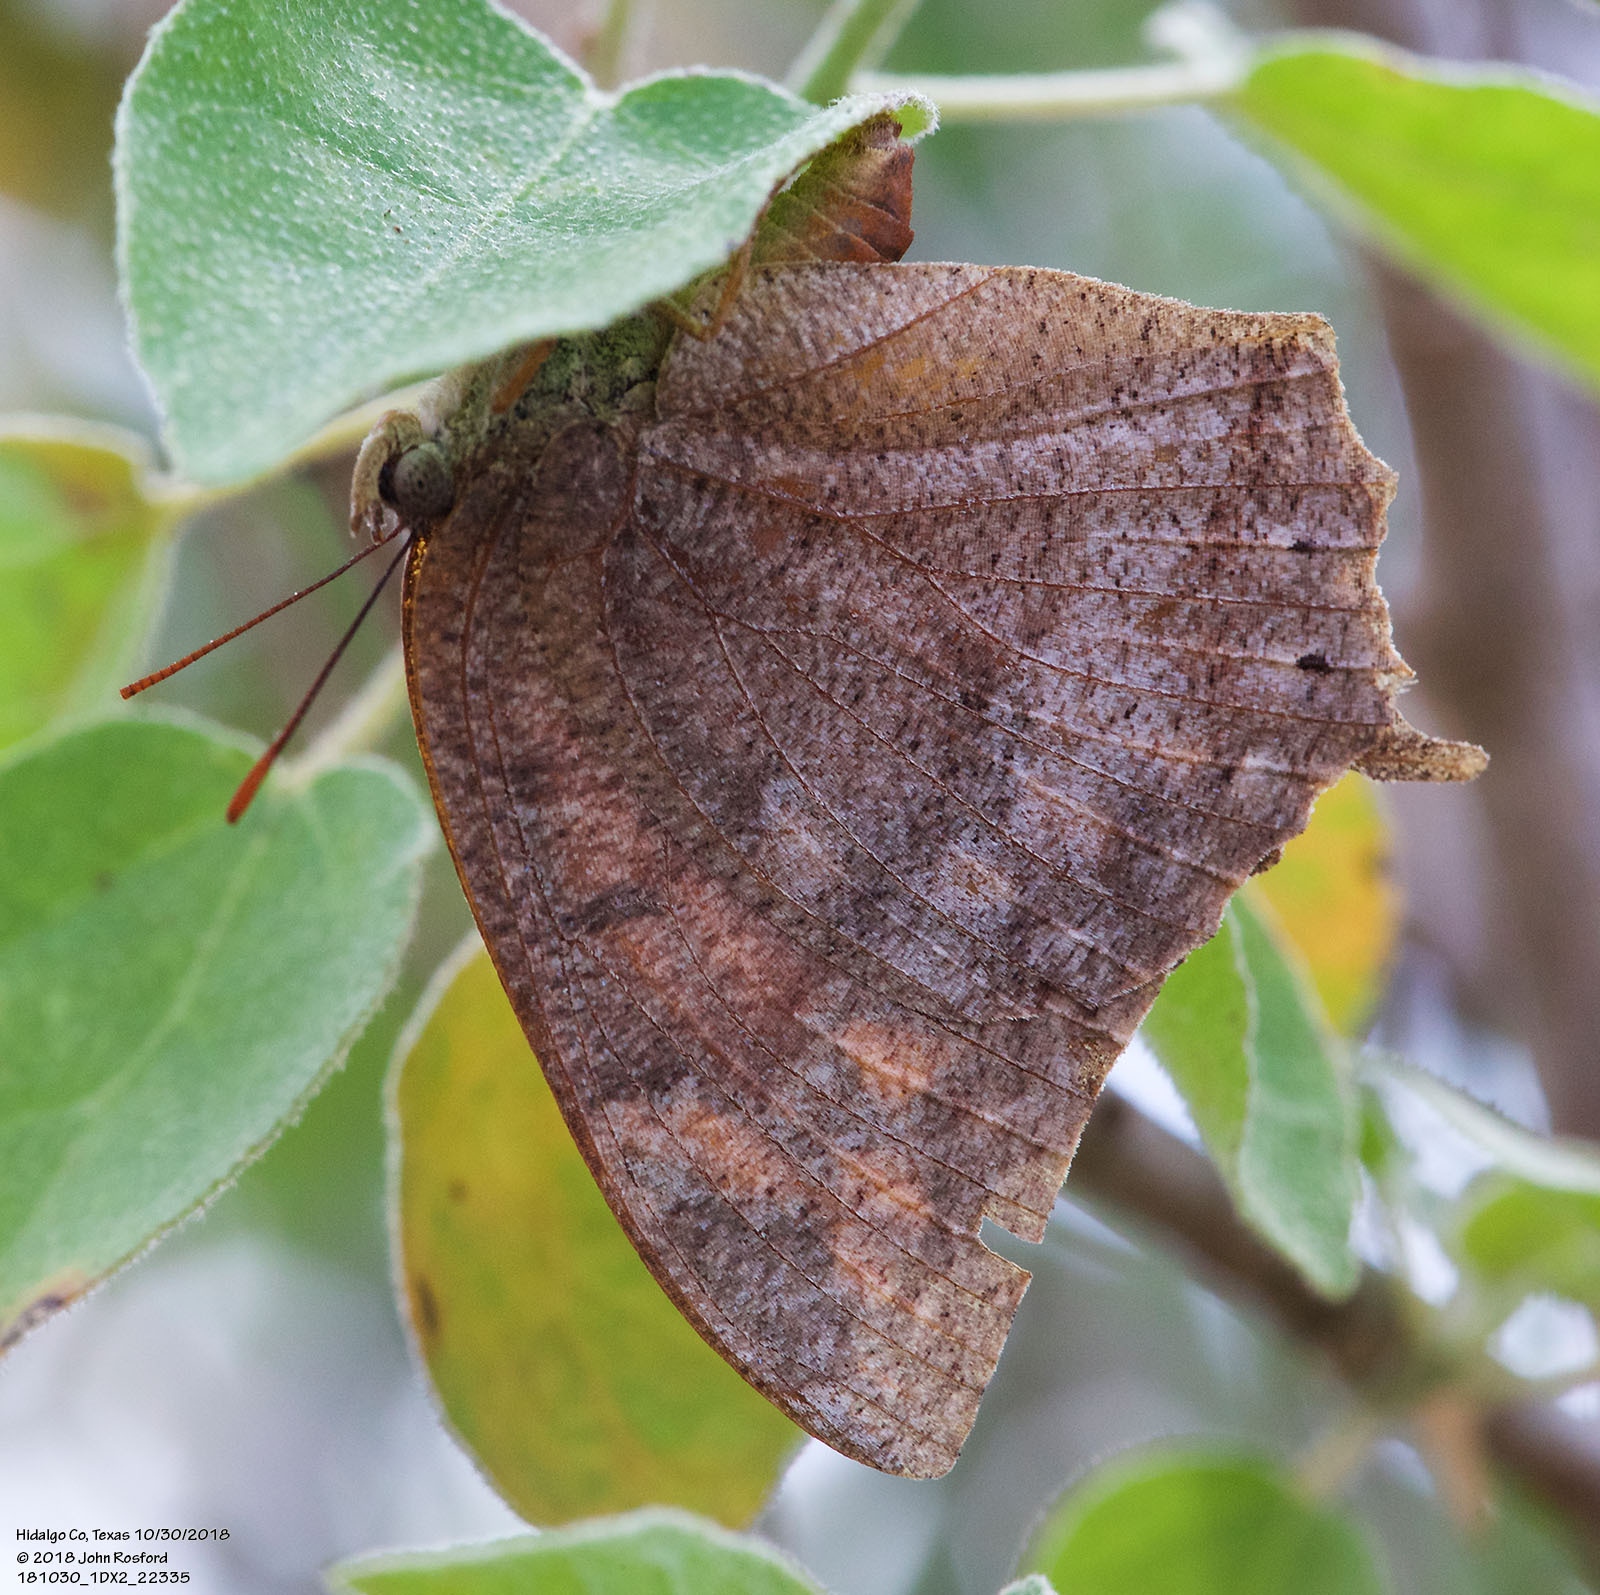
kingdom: Animalia
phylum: Arthropoda
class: Insecta
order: Lepidoptera
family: Nymphalidae
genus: Anaea
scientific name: Anaea aidea
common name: Tropical leafwing
